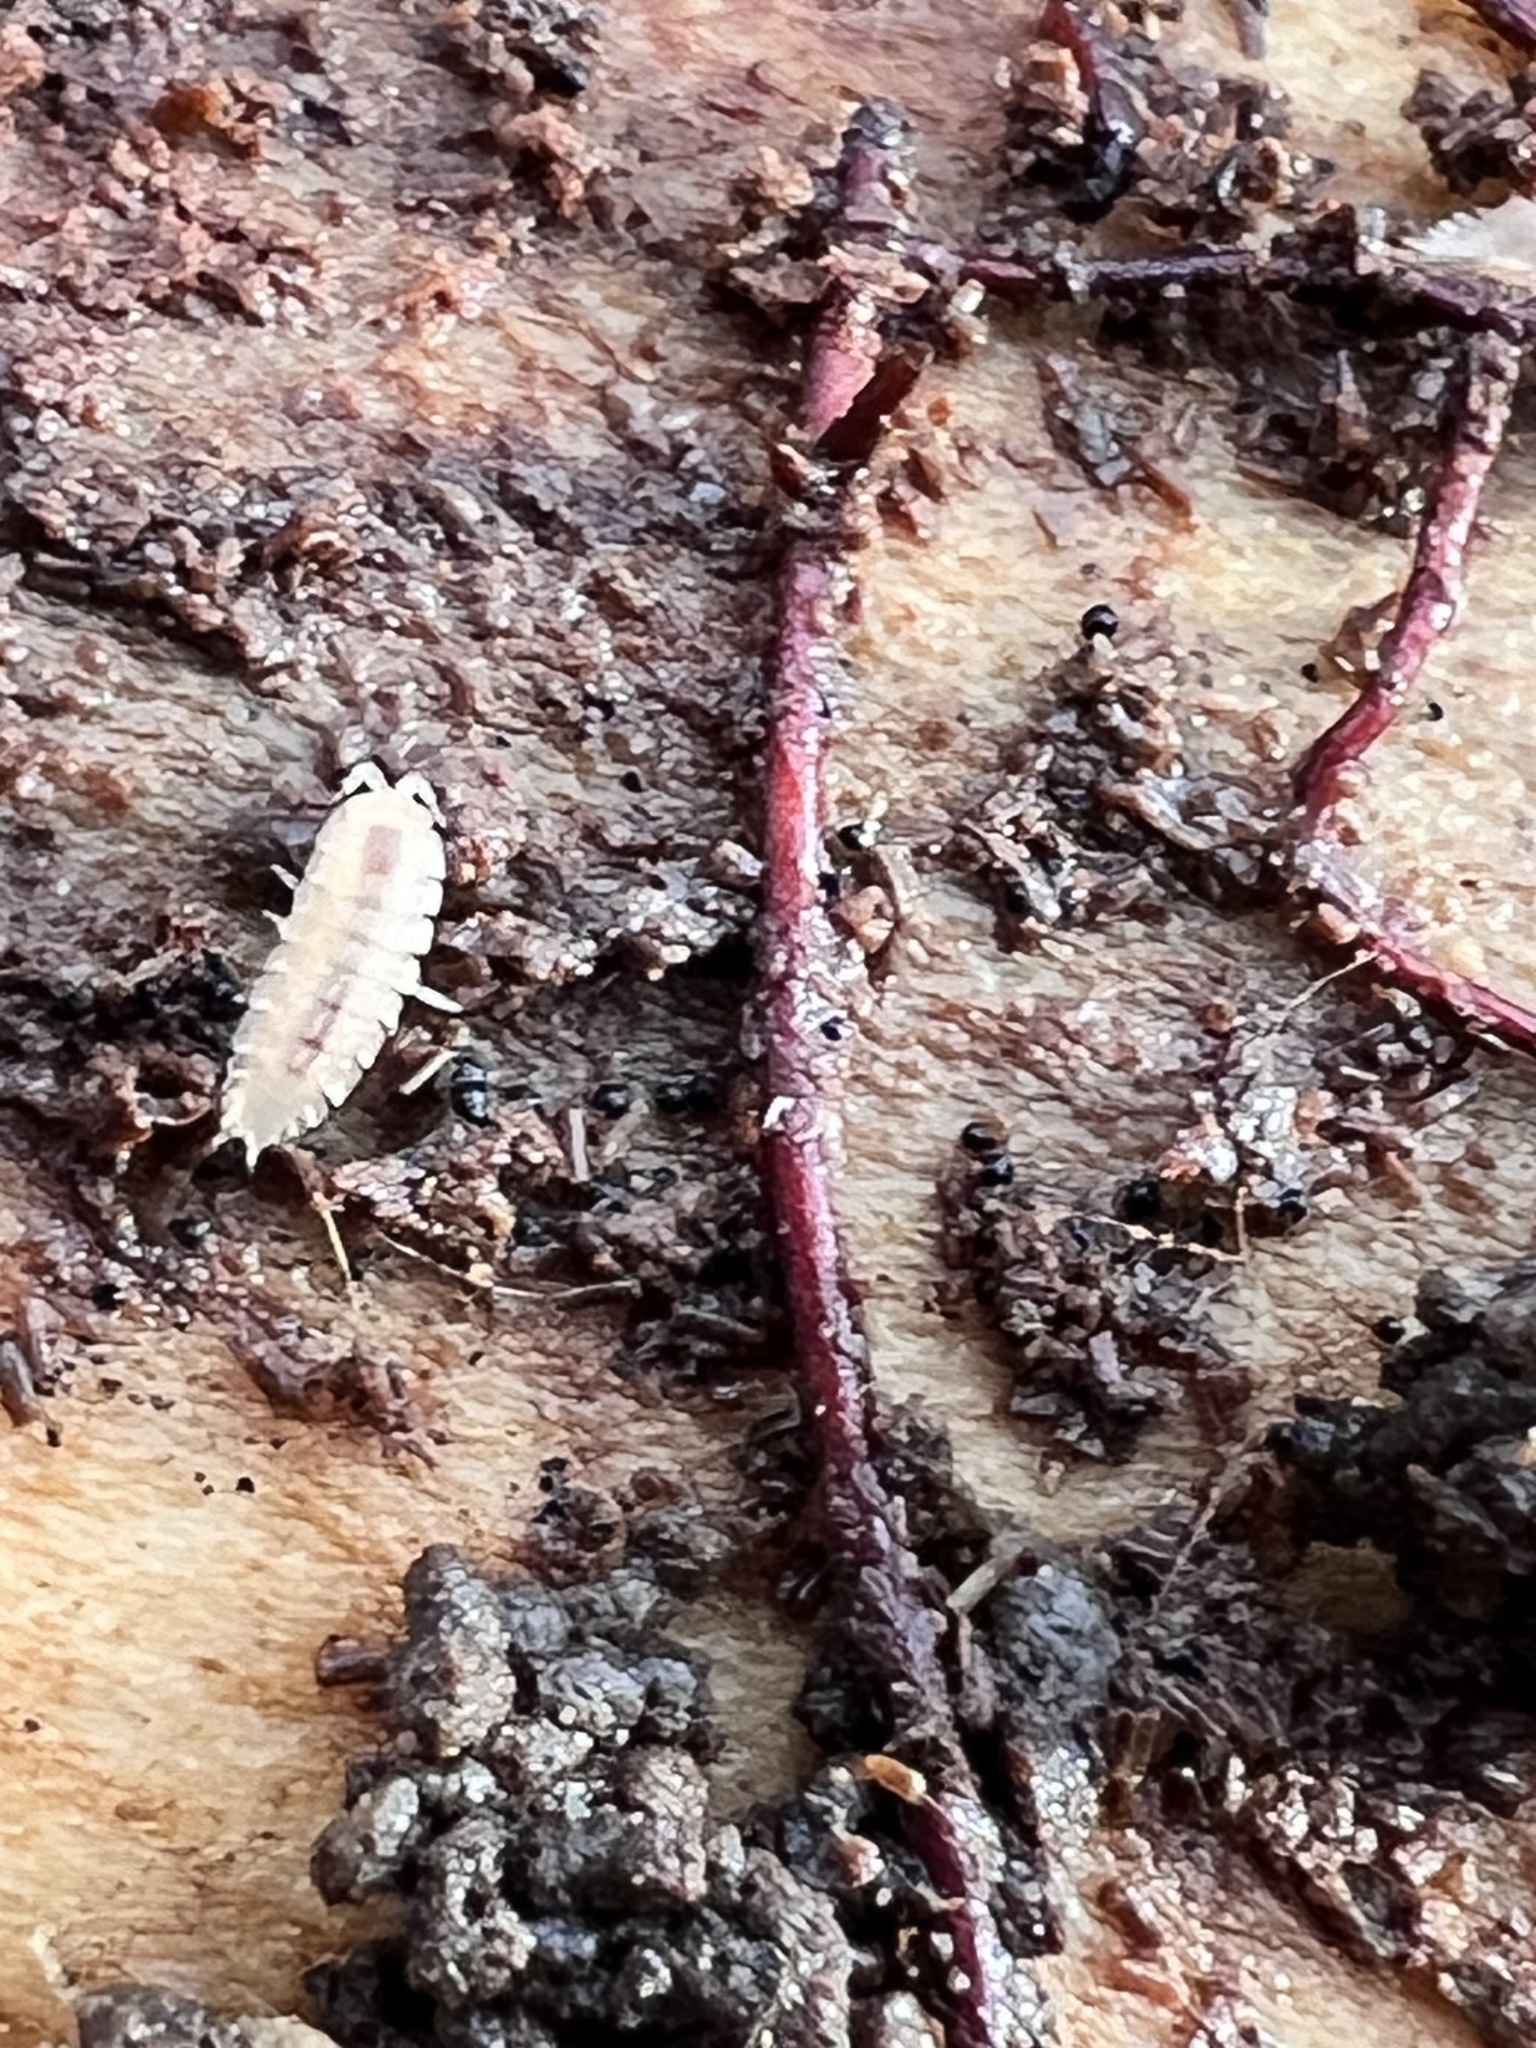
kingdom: Animalia
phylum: Arthropoda
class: Malacostraca
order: Isopoda
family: Trichoniscidae
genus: Haplophthalmus
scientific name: Haplophthalmus danicus
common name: Pillbug
